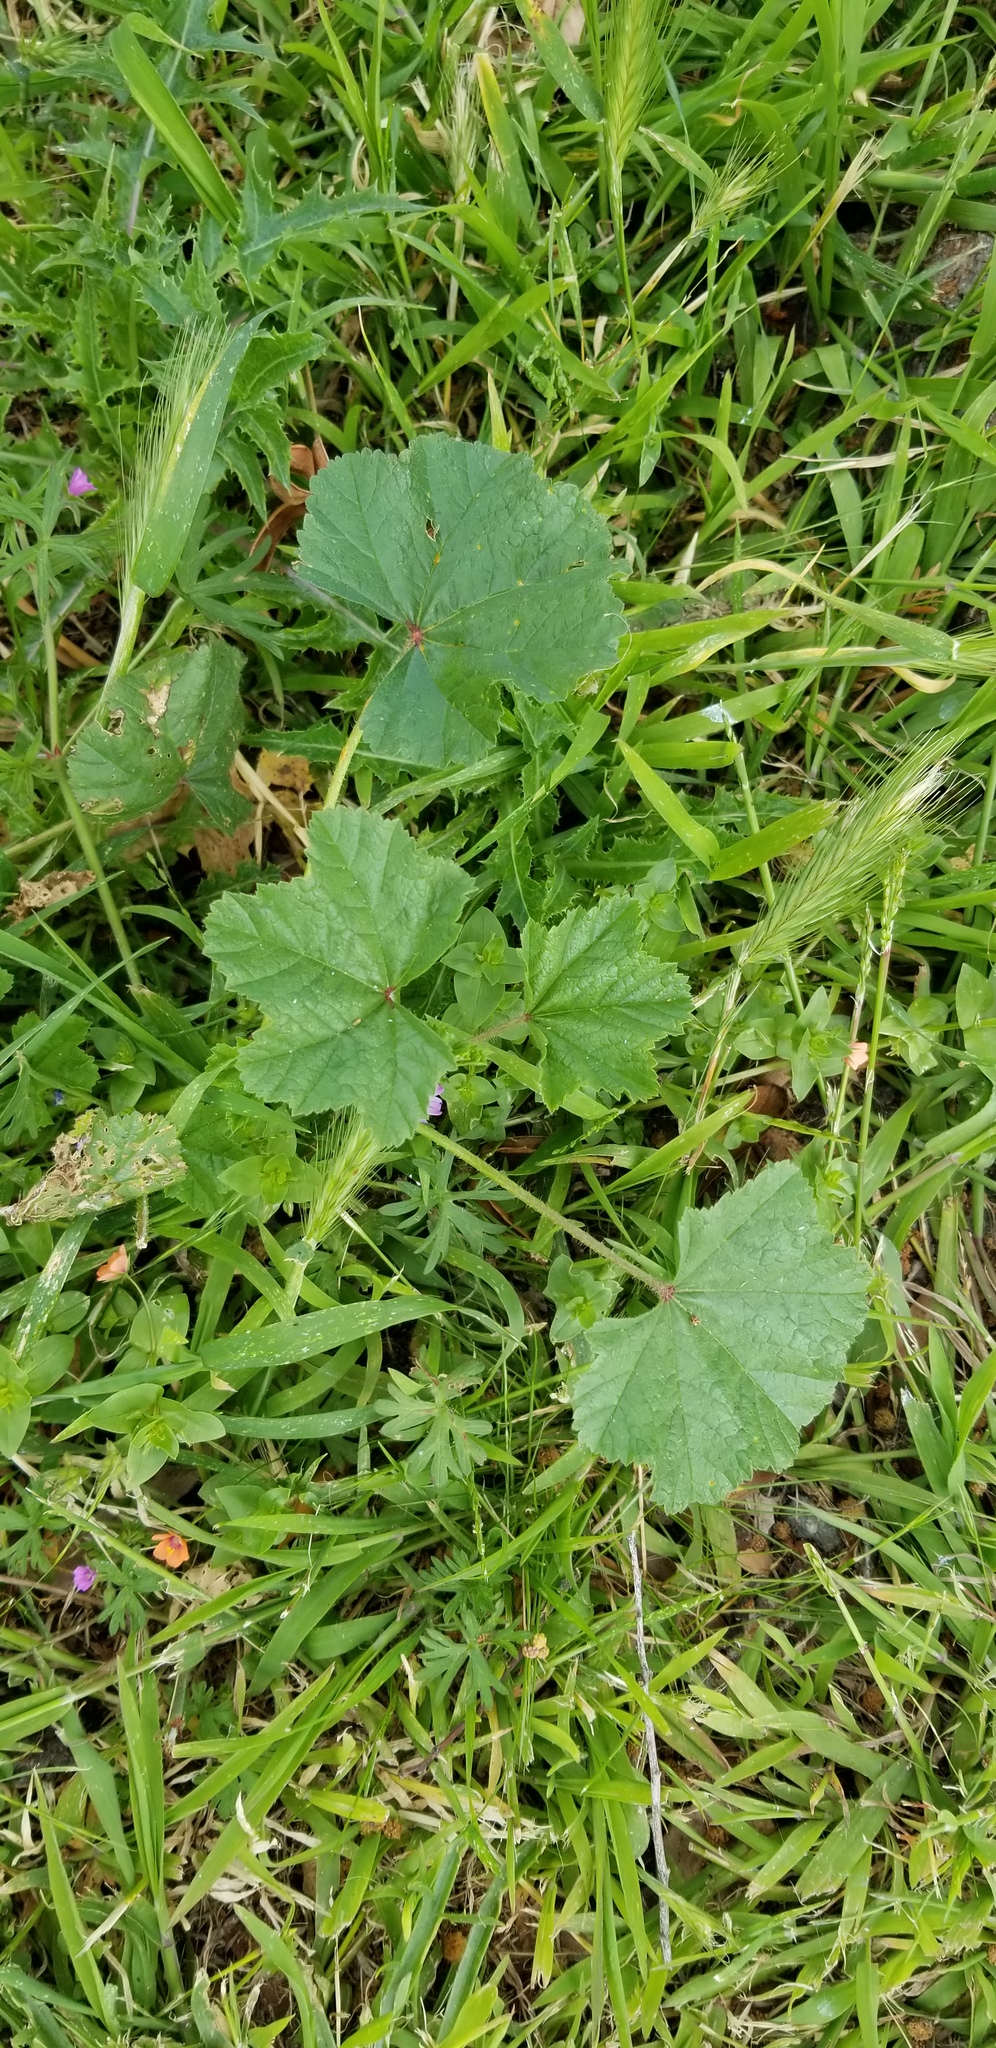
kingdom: Plantae
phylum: Tracheophyta
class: Magnoliopsida
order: Malvales
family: Malvaceae
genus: Malva
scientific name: Malva
